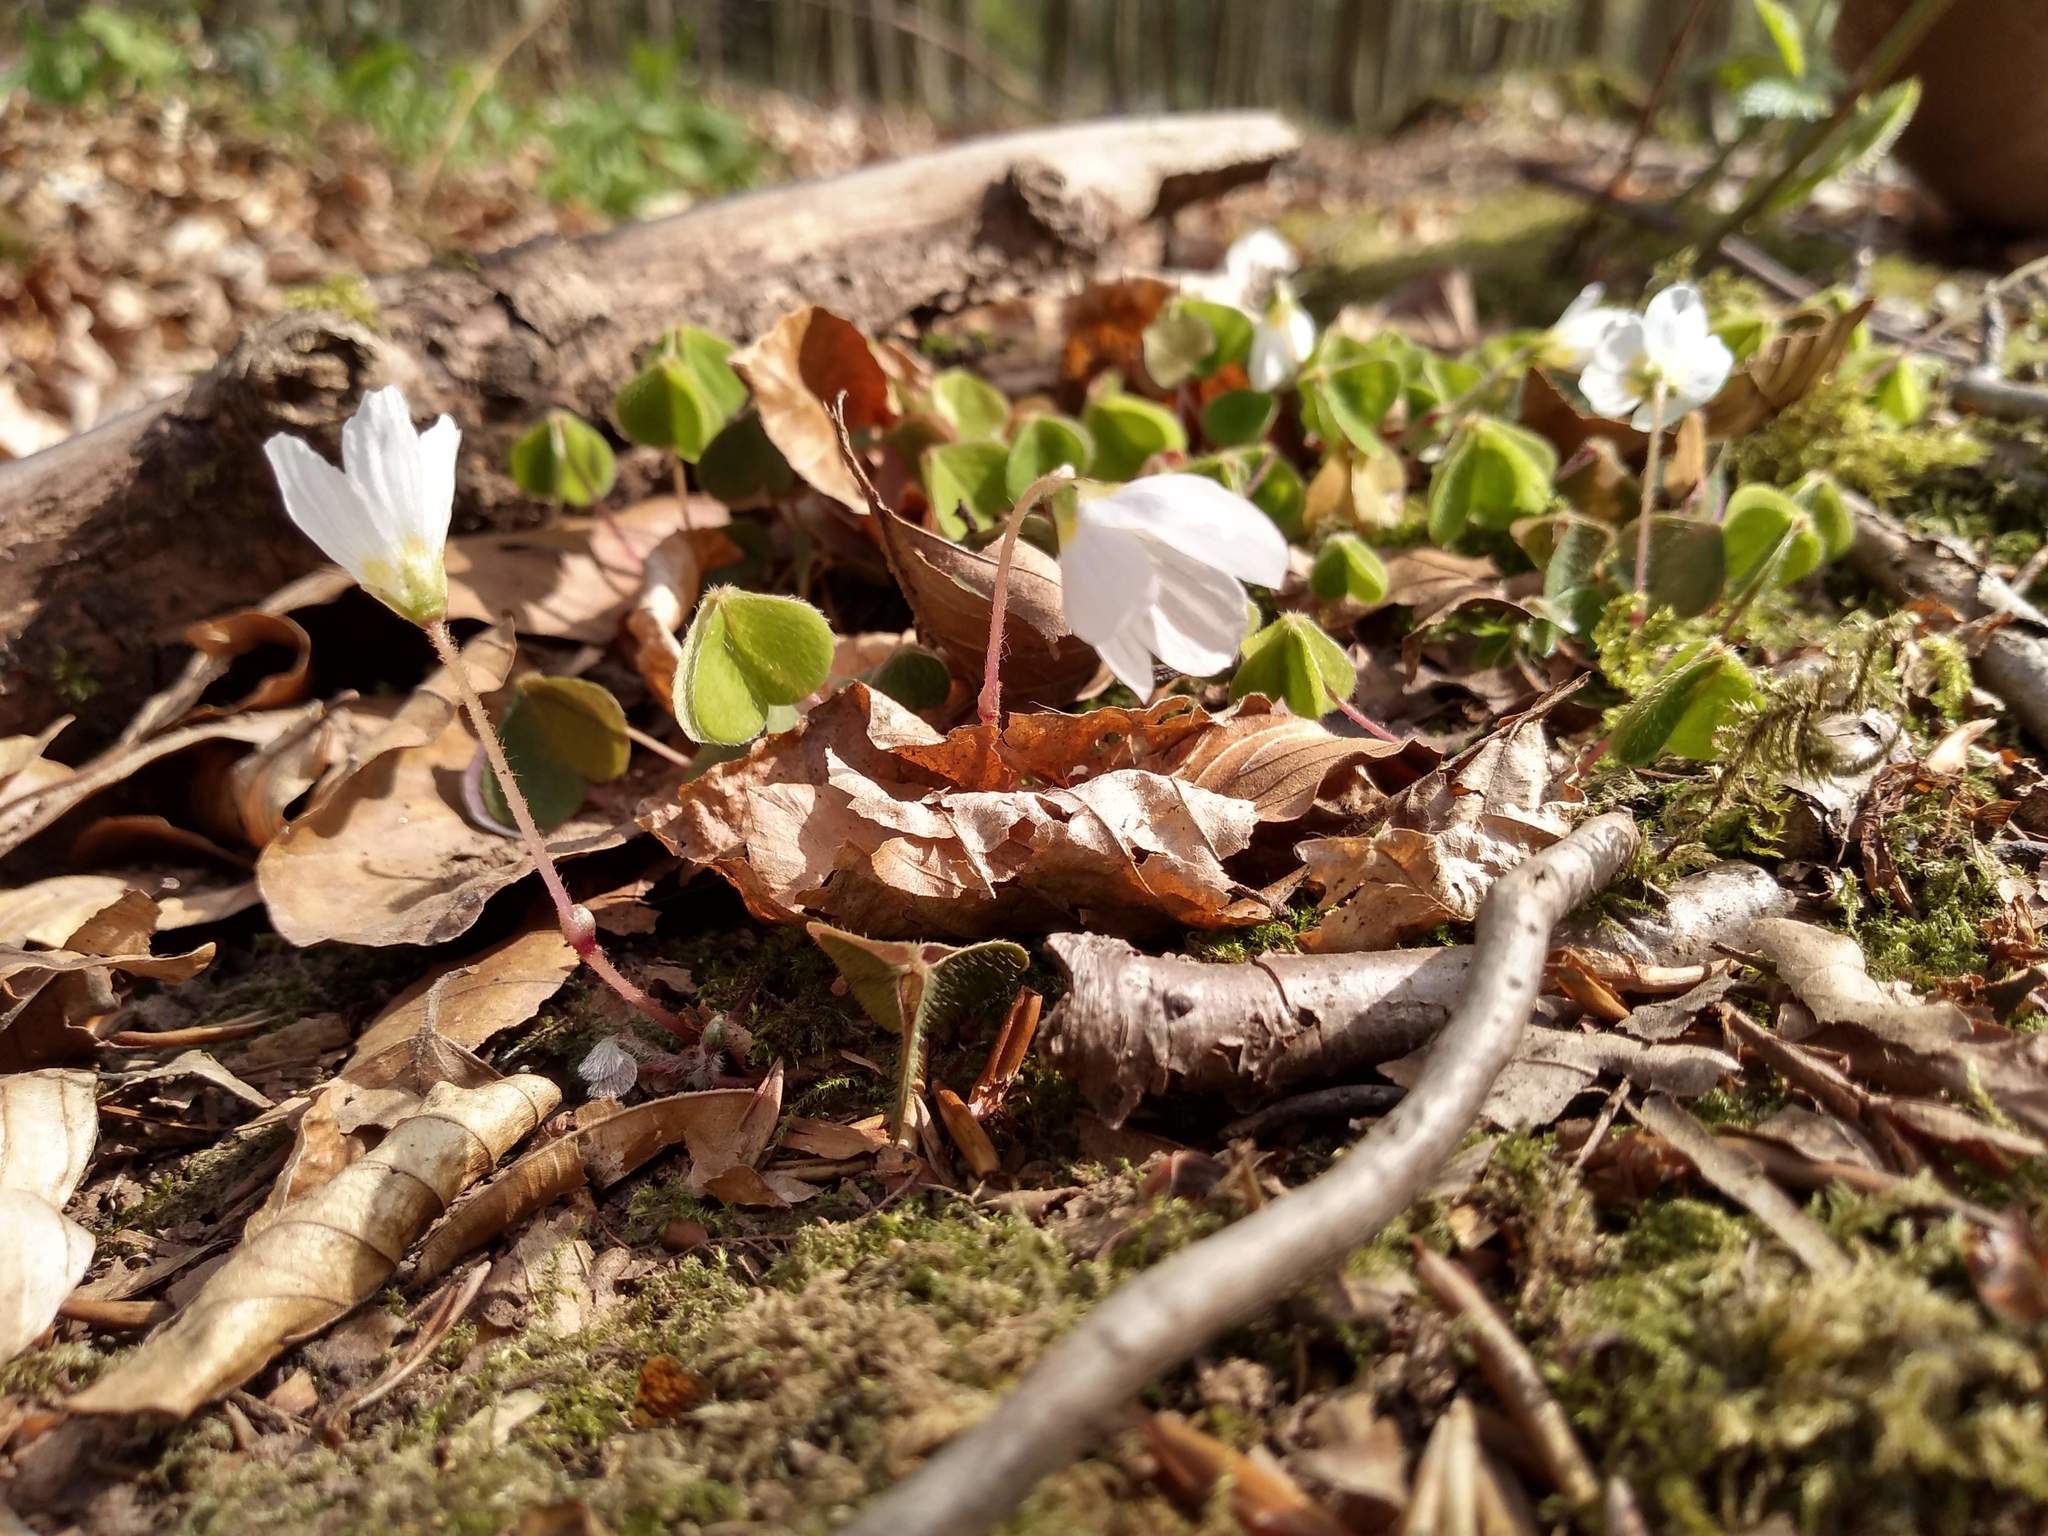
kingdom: Plantae
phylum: Tracheophyta
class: Magnoliopsida
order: Oxalidales
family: Oxalidaceae
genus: Oxalis
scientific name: Oxalis acetosella
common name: Wood-sorrel
